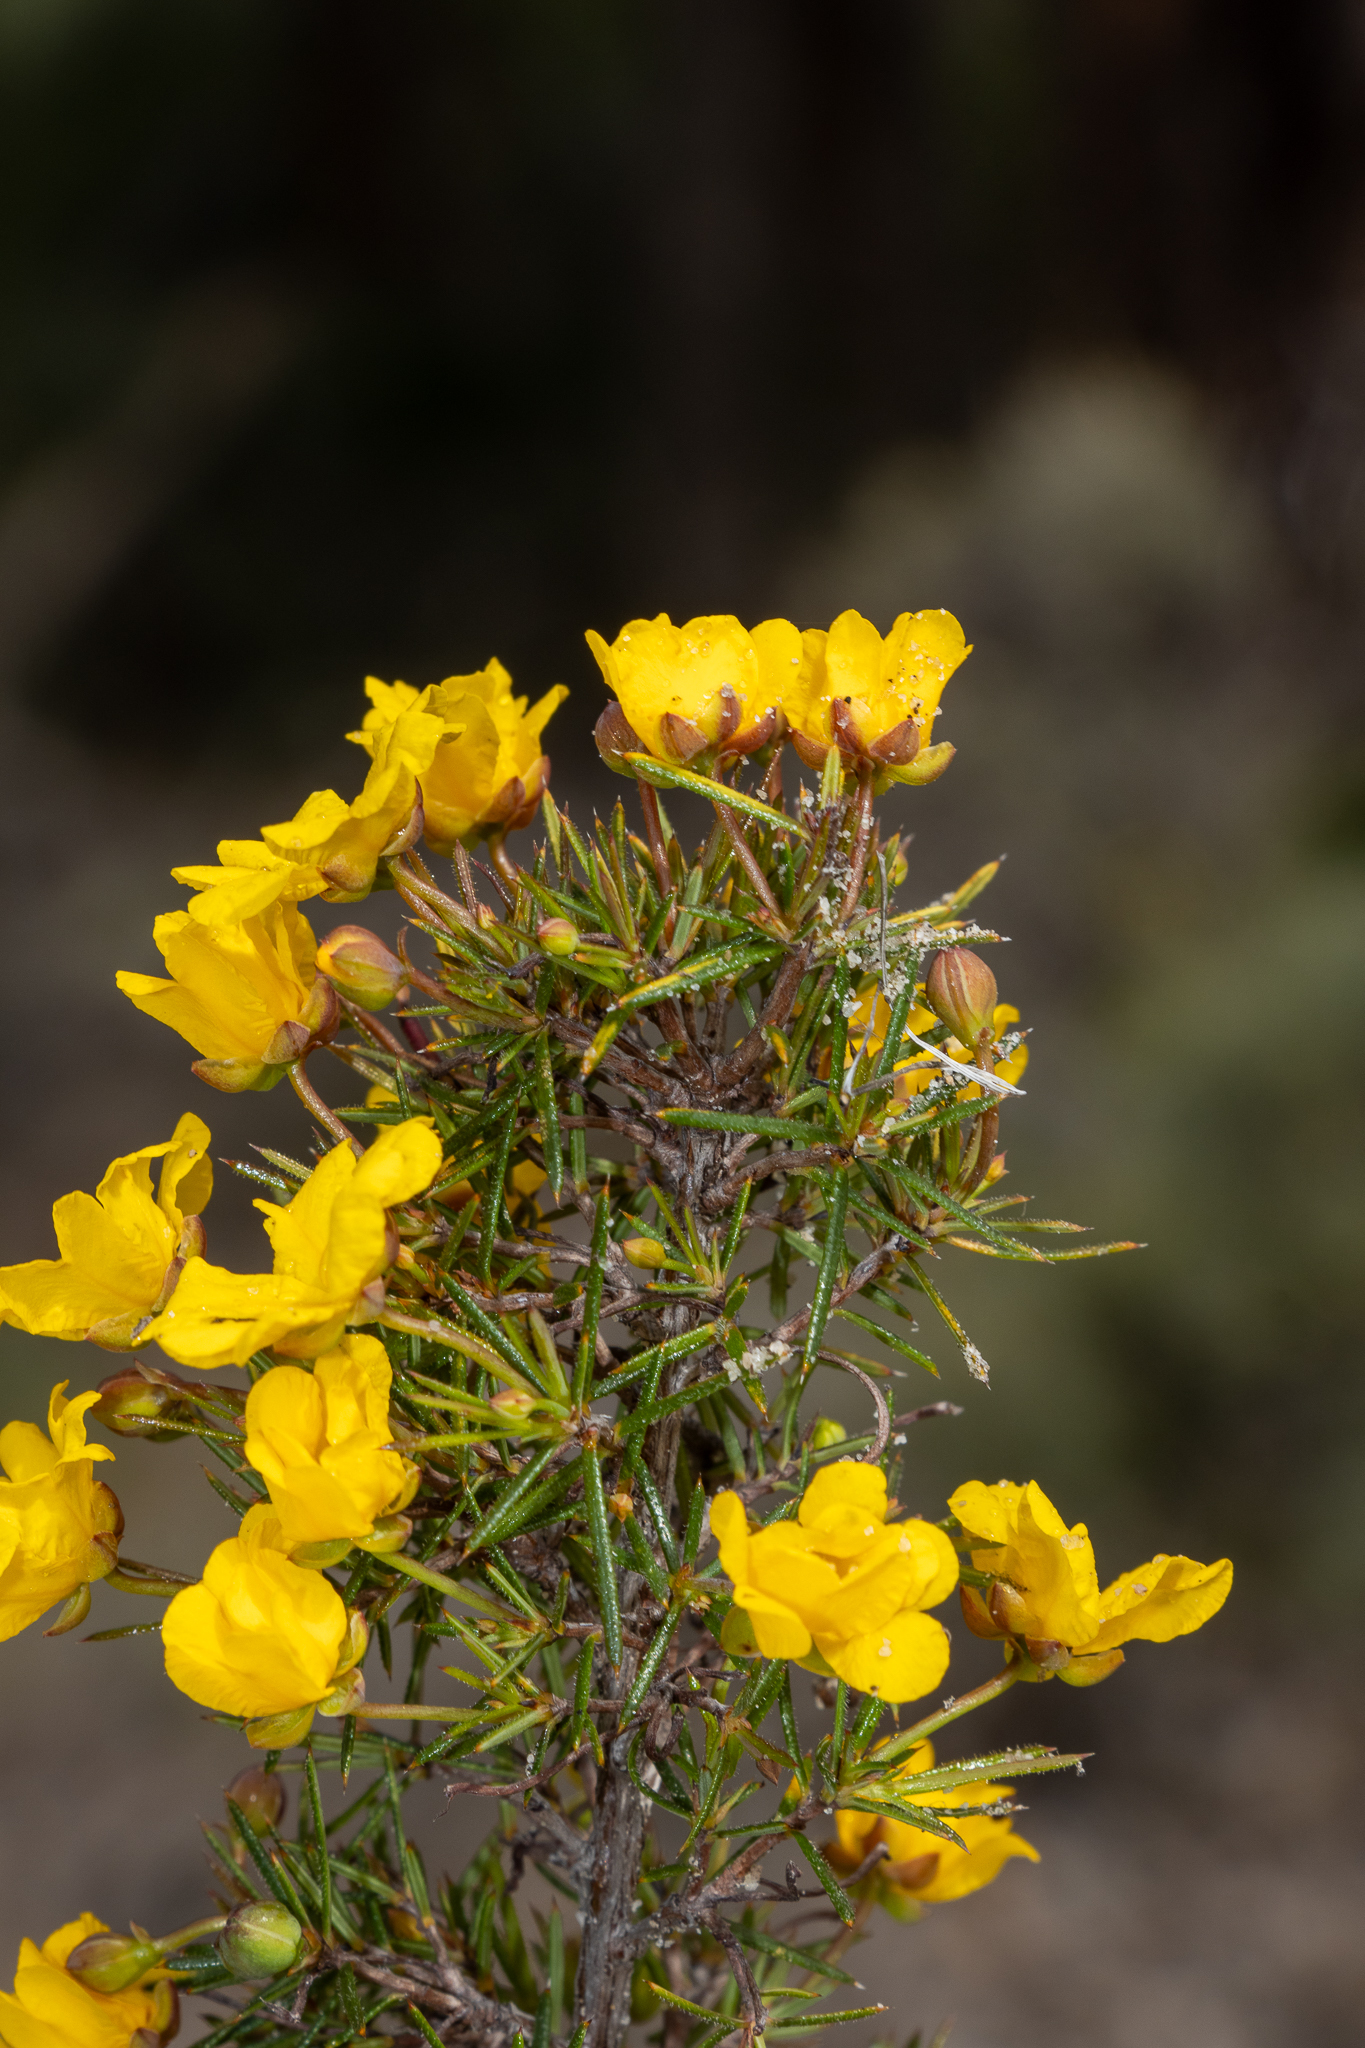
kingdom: Plantae
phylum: Tracheophyta
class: Magnoliopsida
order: Dilleniales
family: Dilleniaceae
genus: Hibbertia
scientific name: Hibbertia
